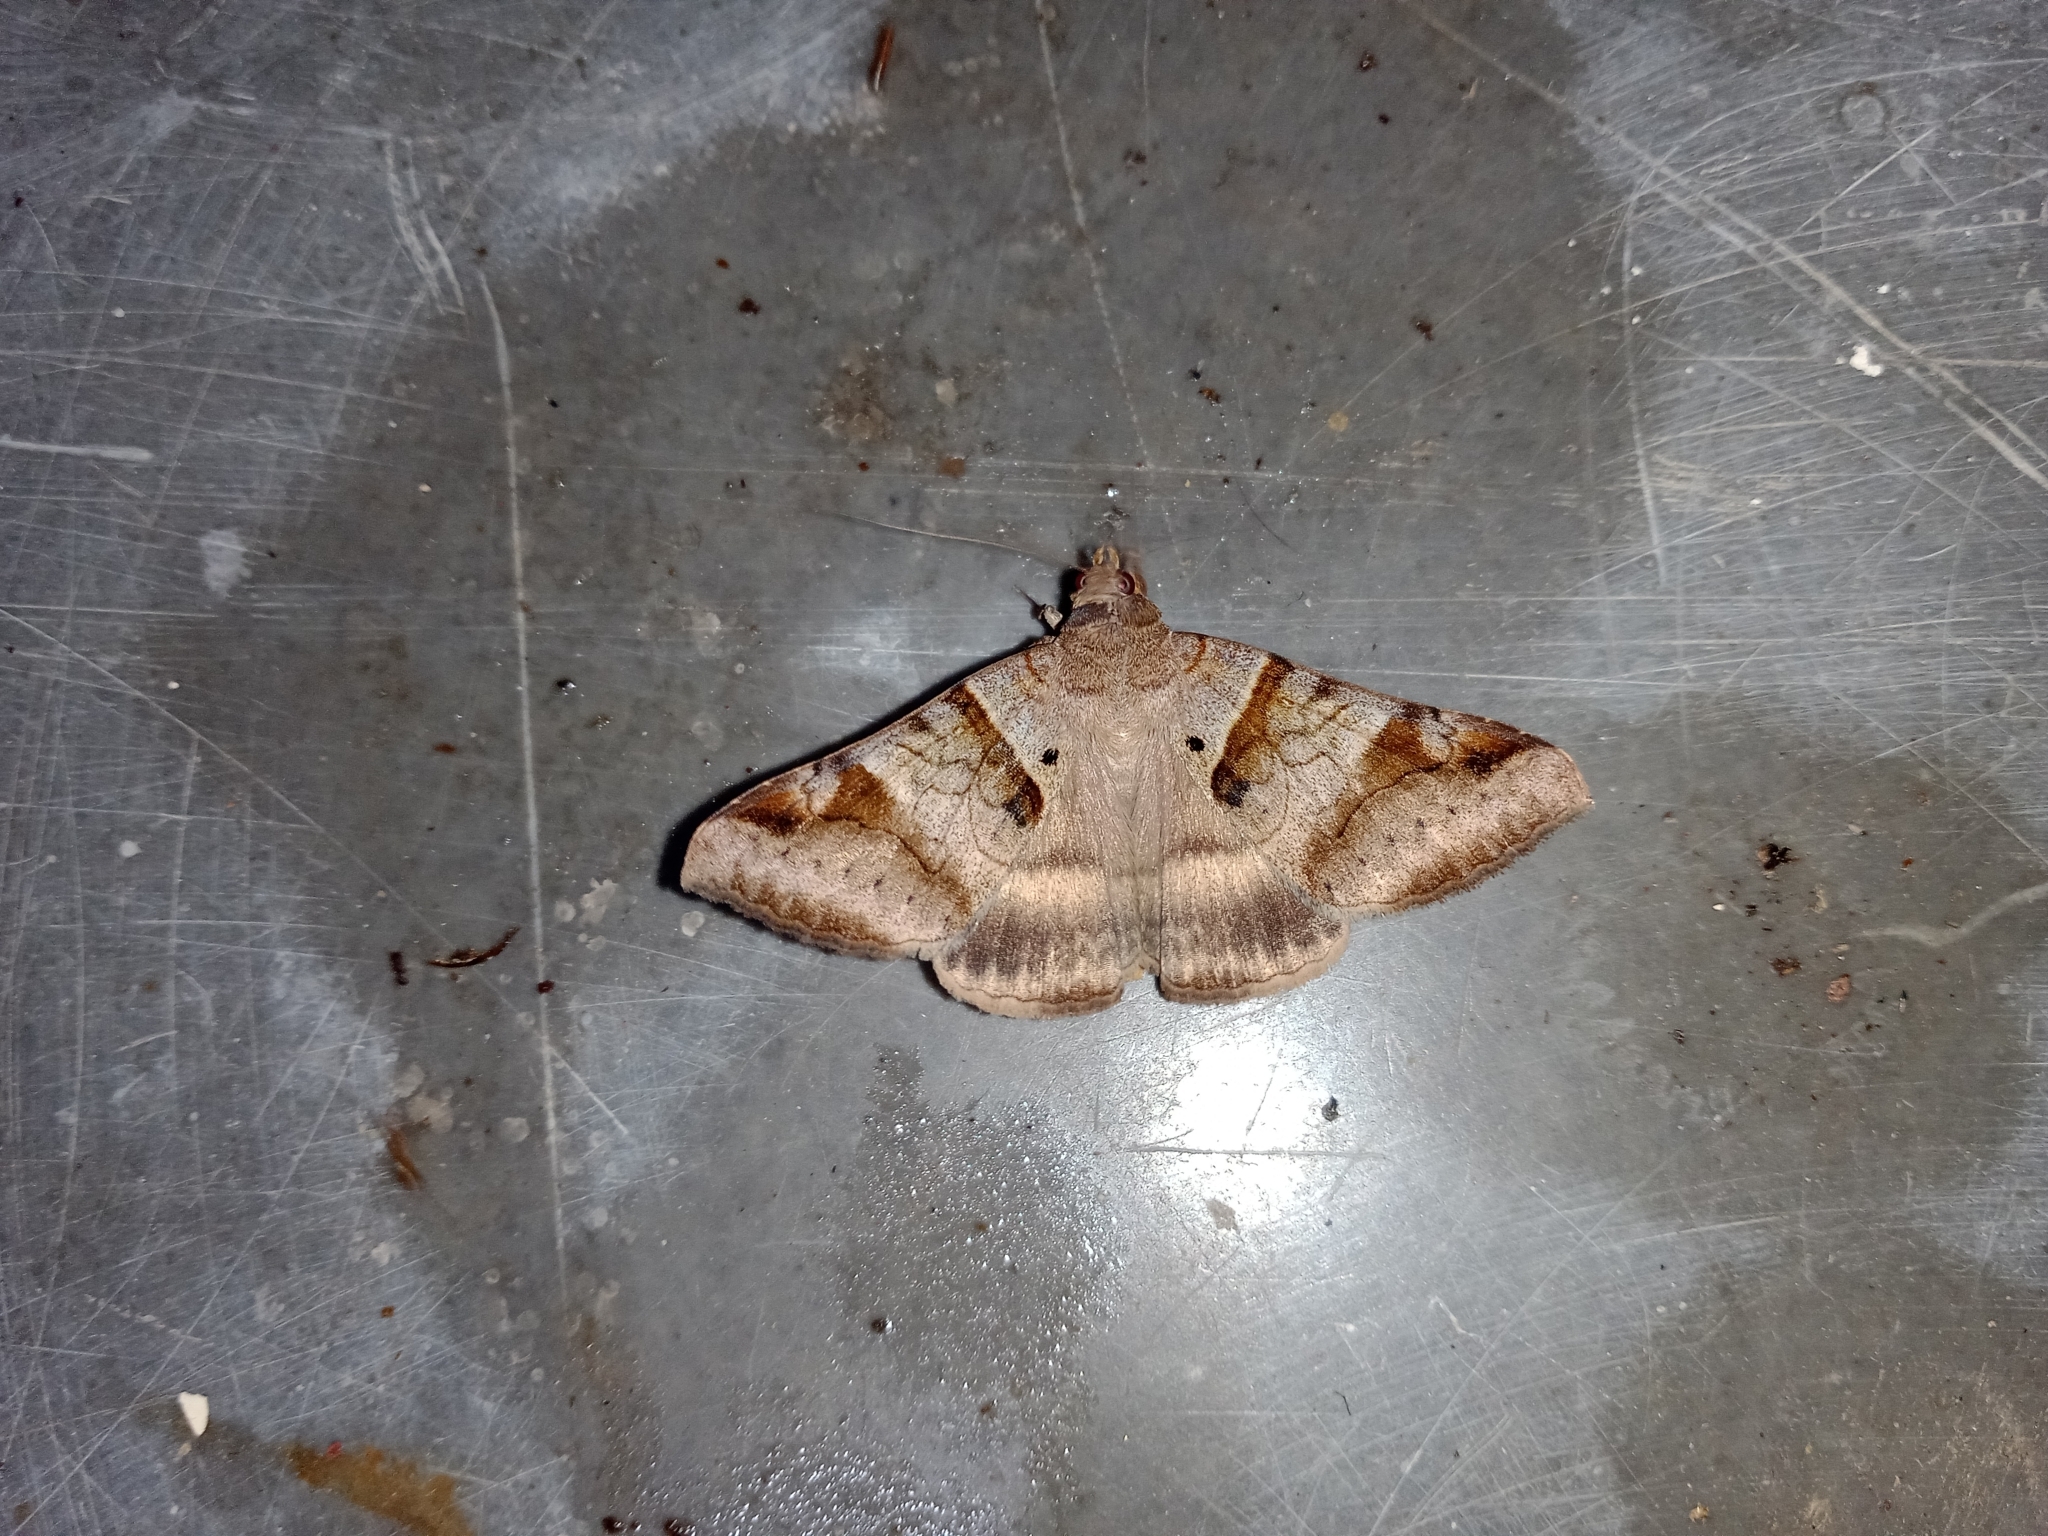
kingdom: Animalia
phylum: Arthropoda
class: Insecta
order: Lepidoptera
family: Erebidae
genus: Mocis
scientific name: Mocis undata
